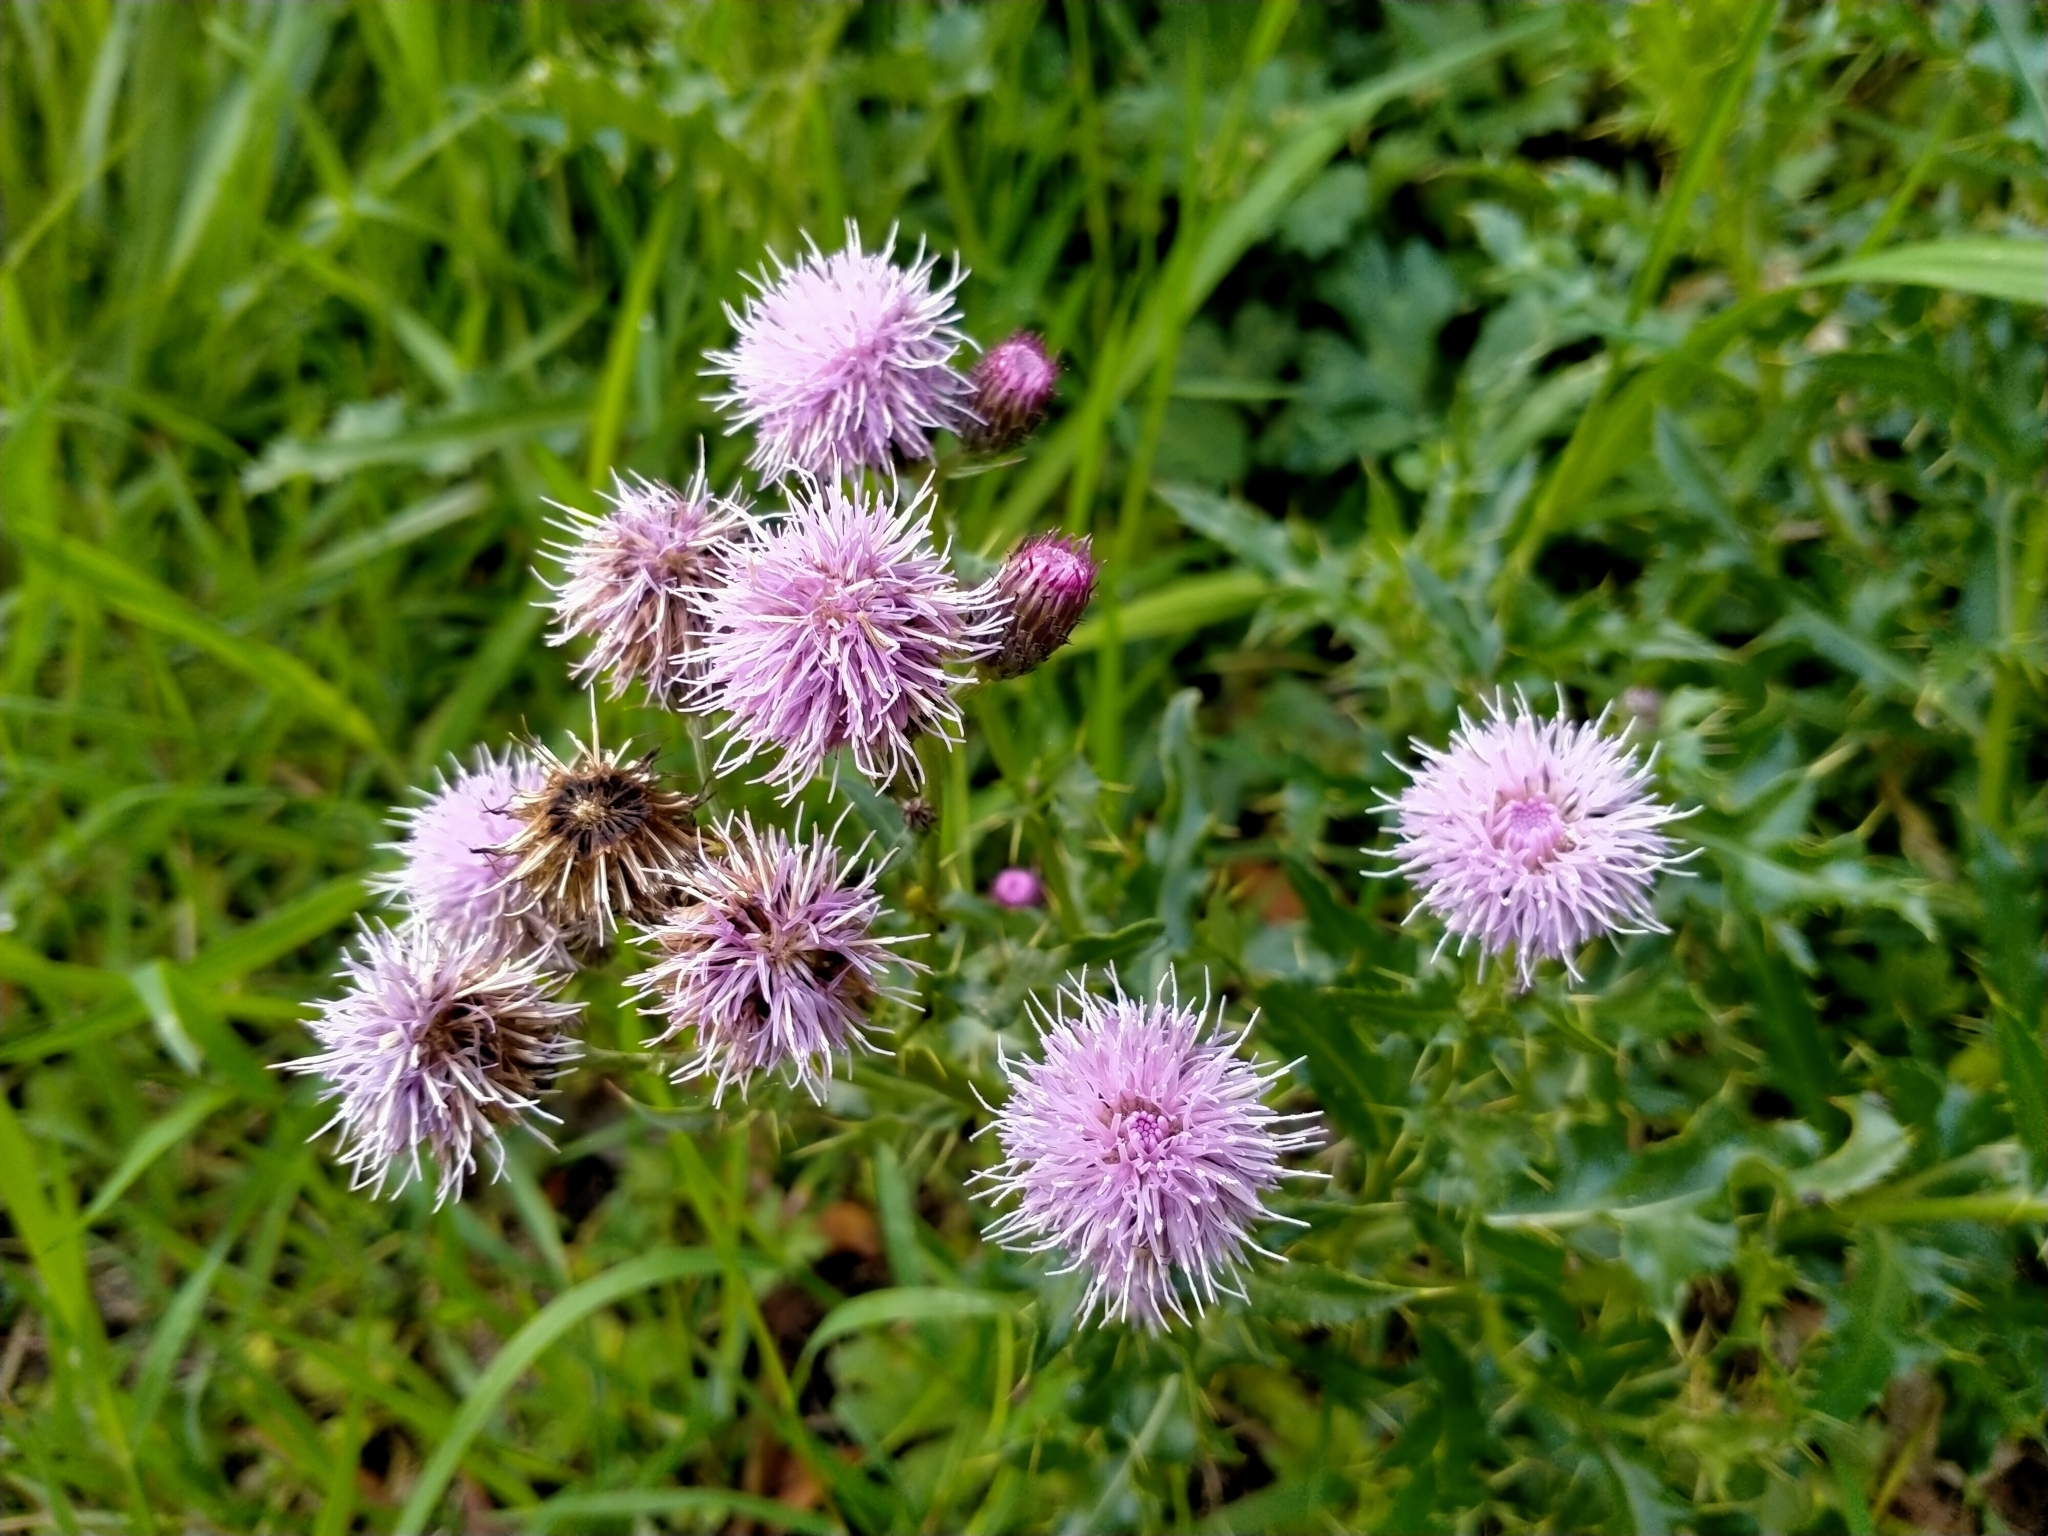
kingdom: Plantae
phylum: Tracheophyta
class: Magnoliopsida
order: Asterales
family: Asteraceae
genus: Cirsium
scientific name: Cirsium arvense
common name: Creeping thistle
